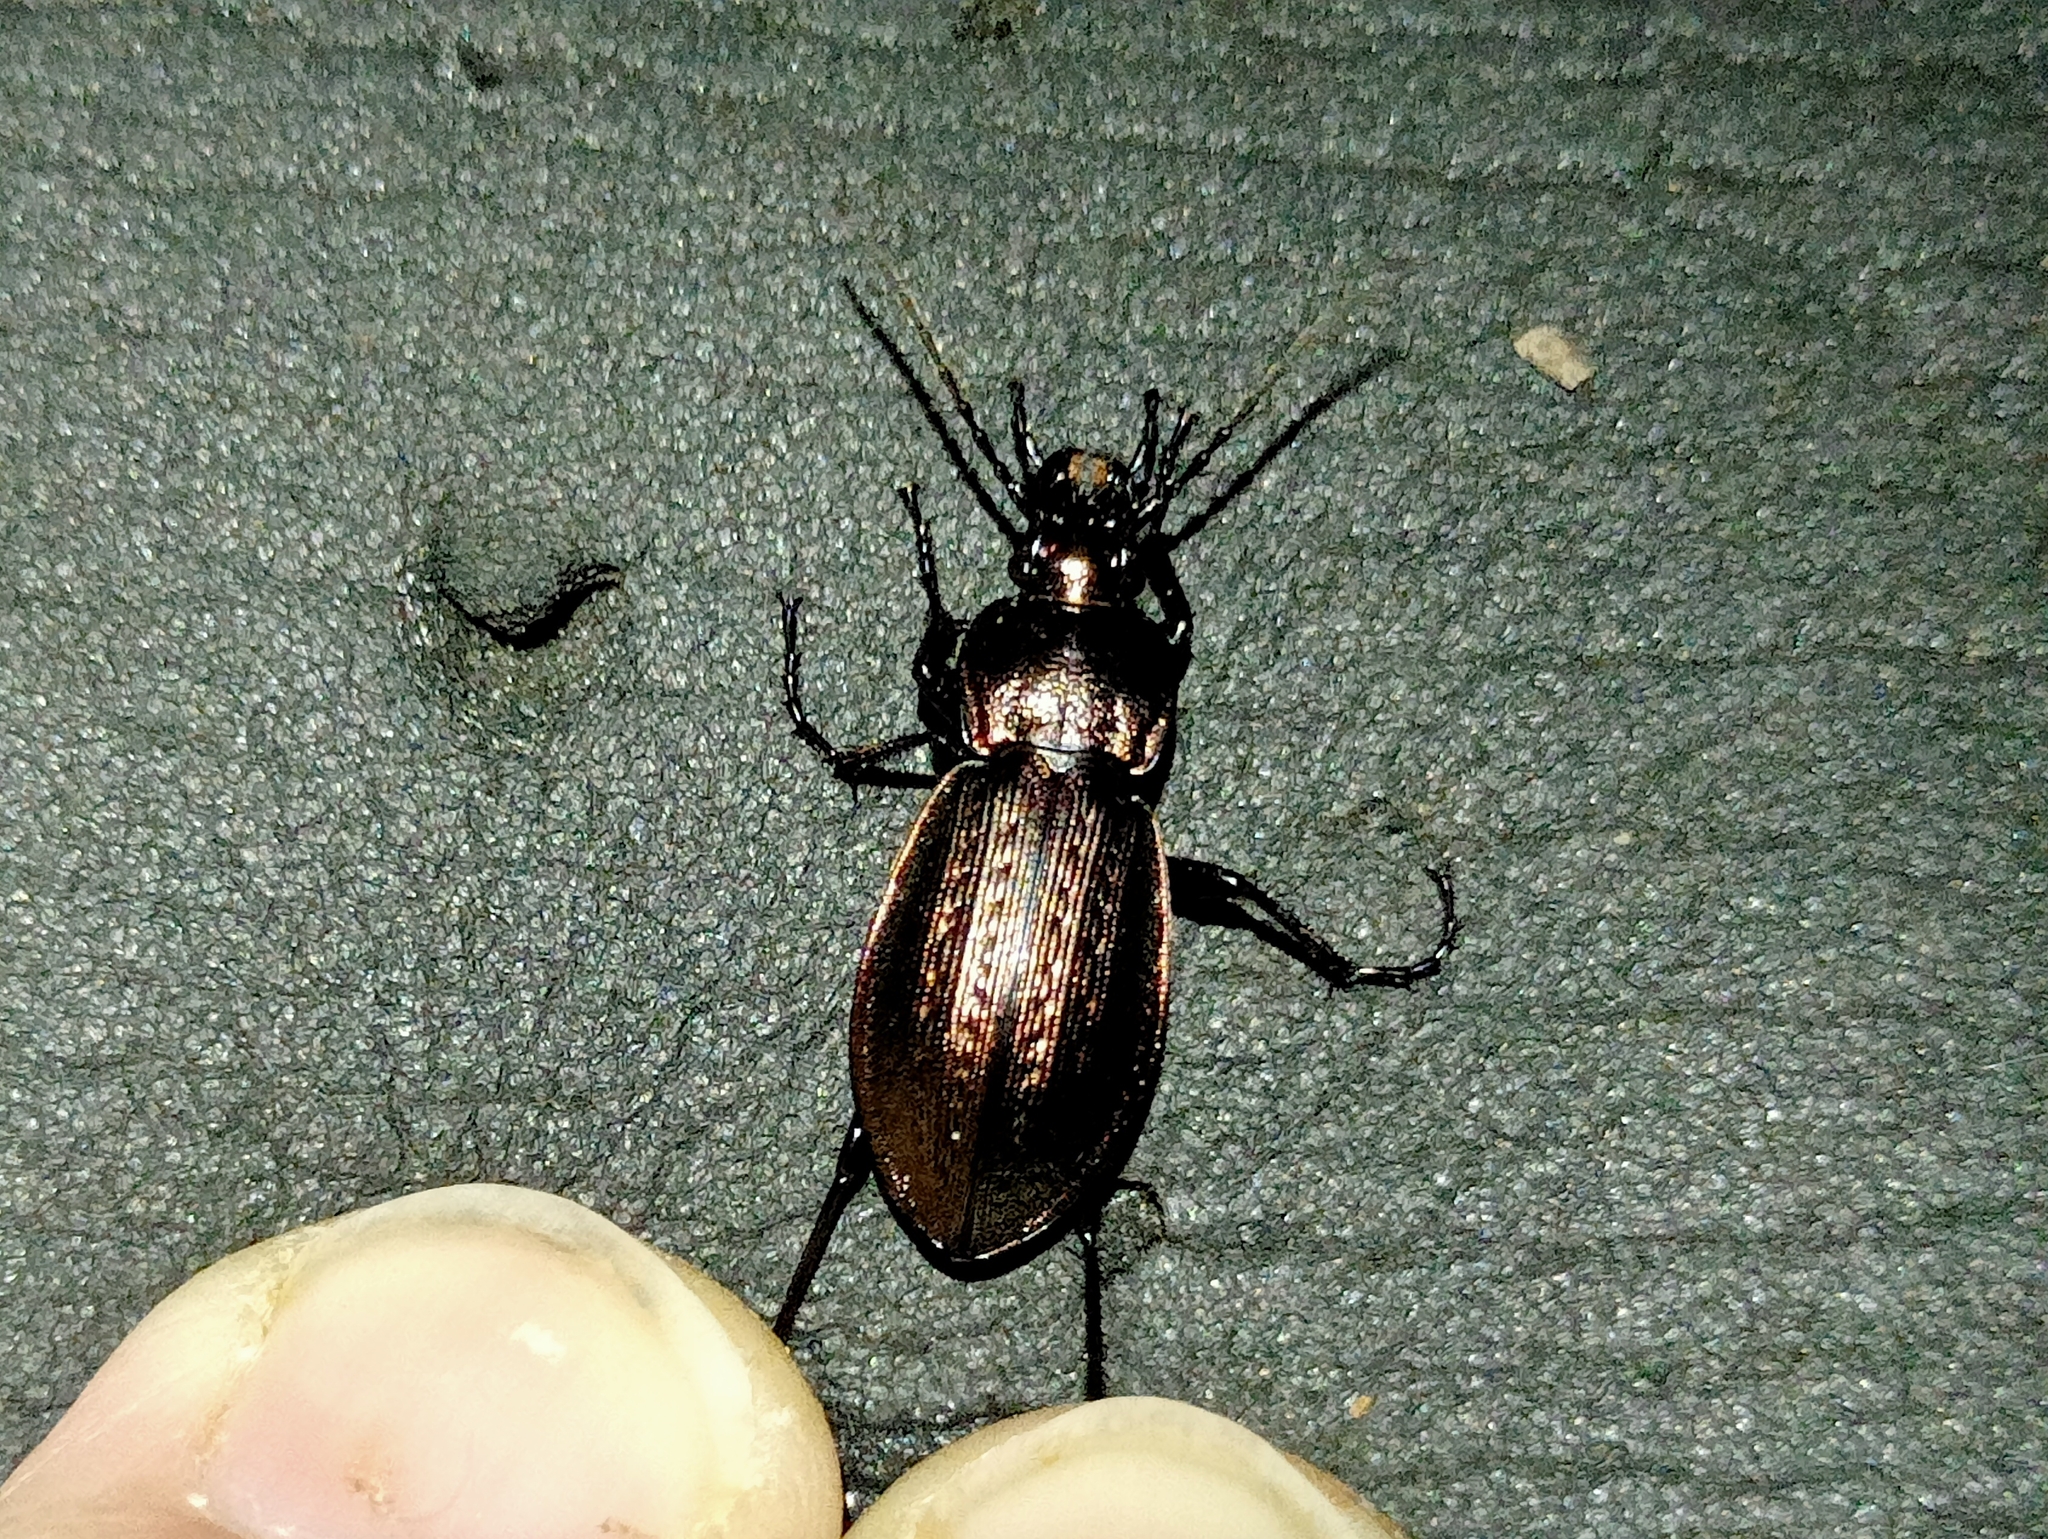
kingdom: Animalia
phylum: Arthropoda
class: Insecta
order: Coleoptera
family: Carabidae
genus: Carabus
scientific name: Carabus arvensis
